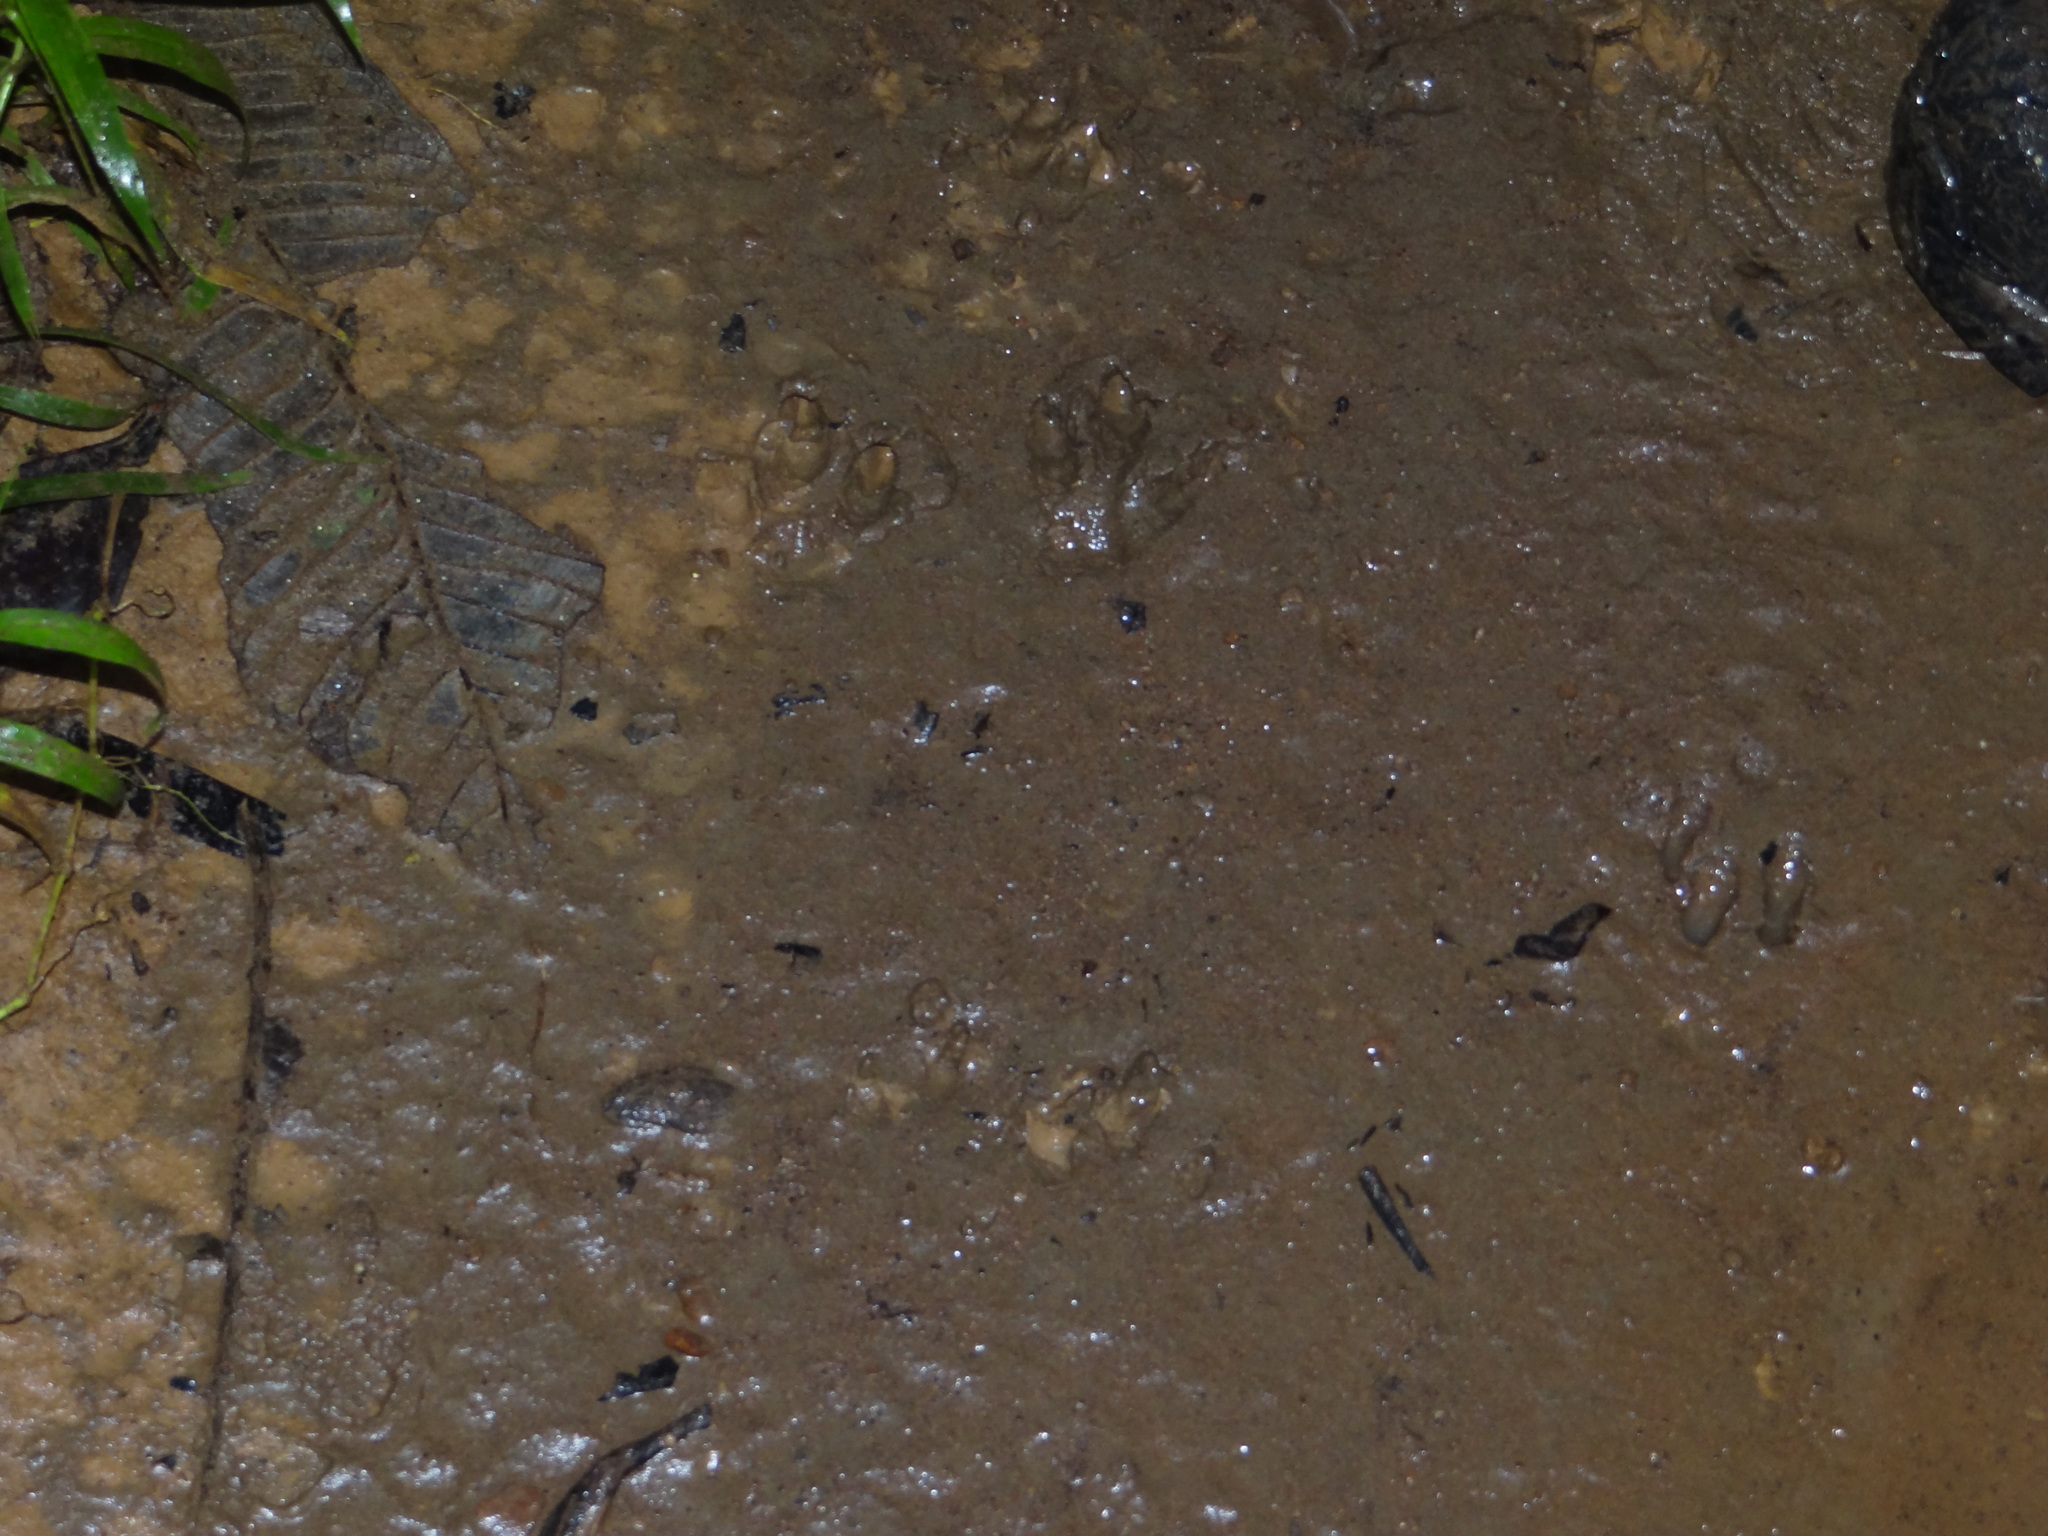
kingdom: Animalia
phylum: Chordata
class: Mammalia
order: Rodentia
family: Dasyproctidae
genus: Dasyprocta
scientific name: Dasyprocta punctata
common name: Central american agouti
